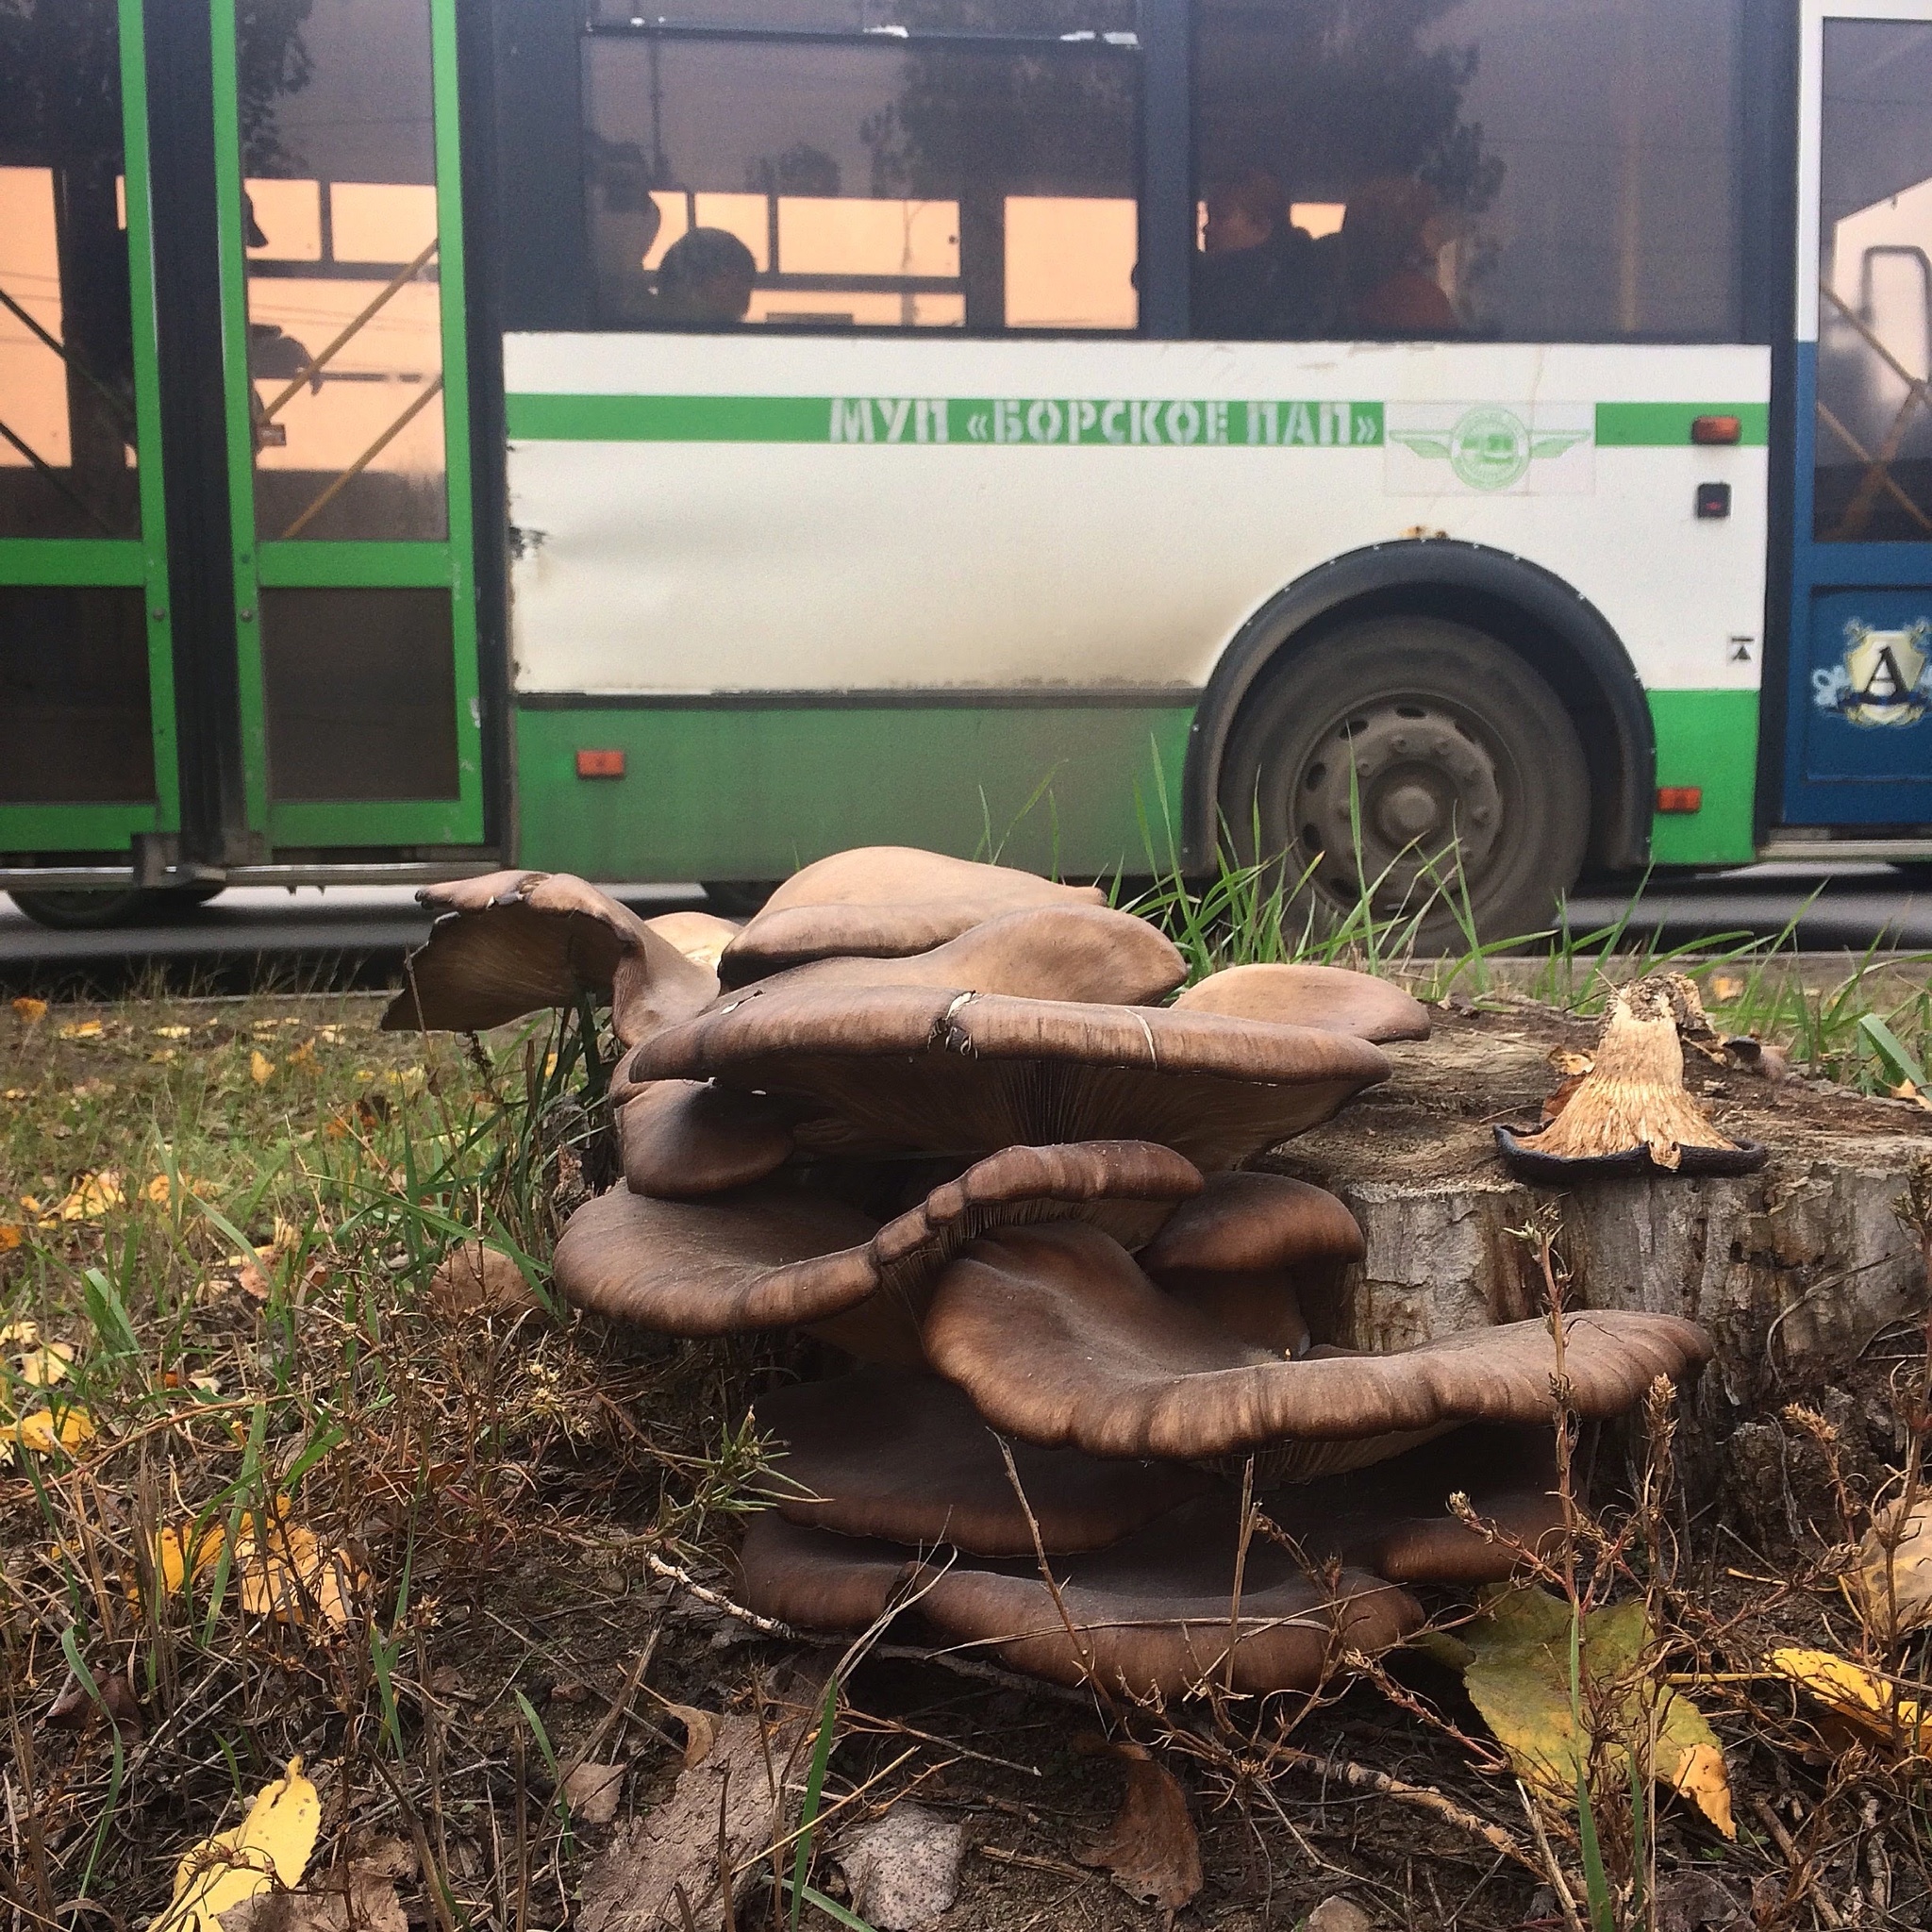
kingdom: Fungi
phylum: Basidiomycota
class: Agaricomycetes
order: Agaricales
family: Pleurotaceae
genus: Pleurotus
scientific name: Pleurotus ostreatus
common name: Oyster mushroom
